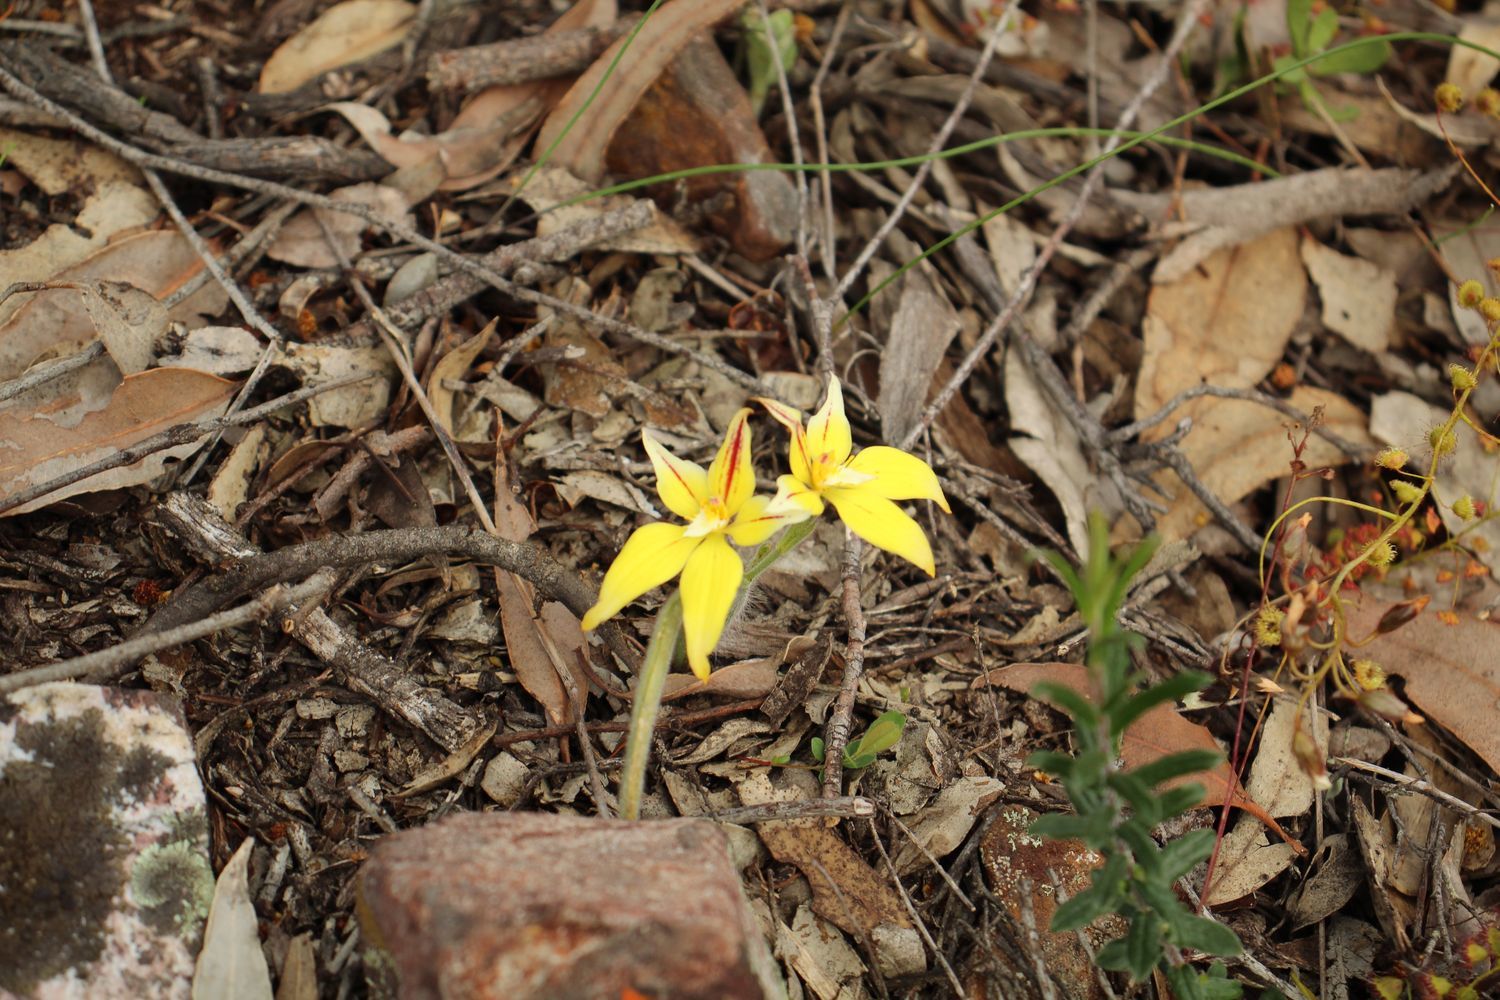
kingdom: Plantae
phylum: Tracheophyta
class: Liliopsida
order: Asparagales
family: Orchidaceae
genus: Caladenia
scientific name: Caladenia flava
